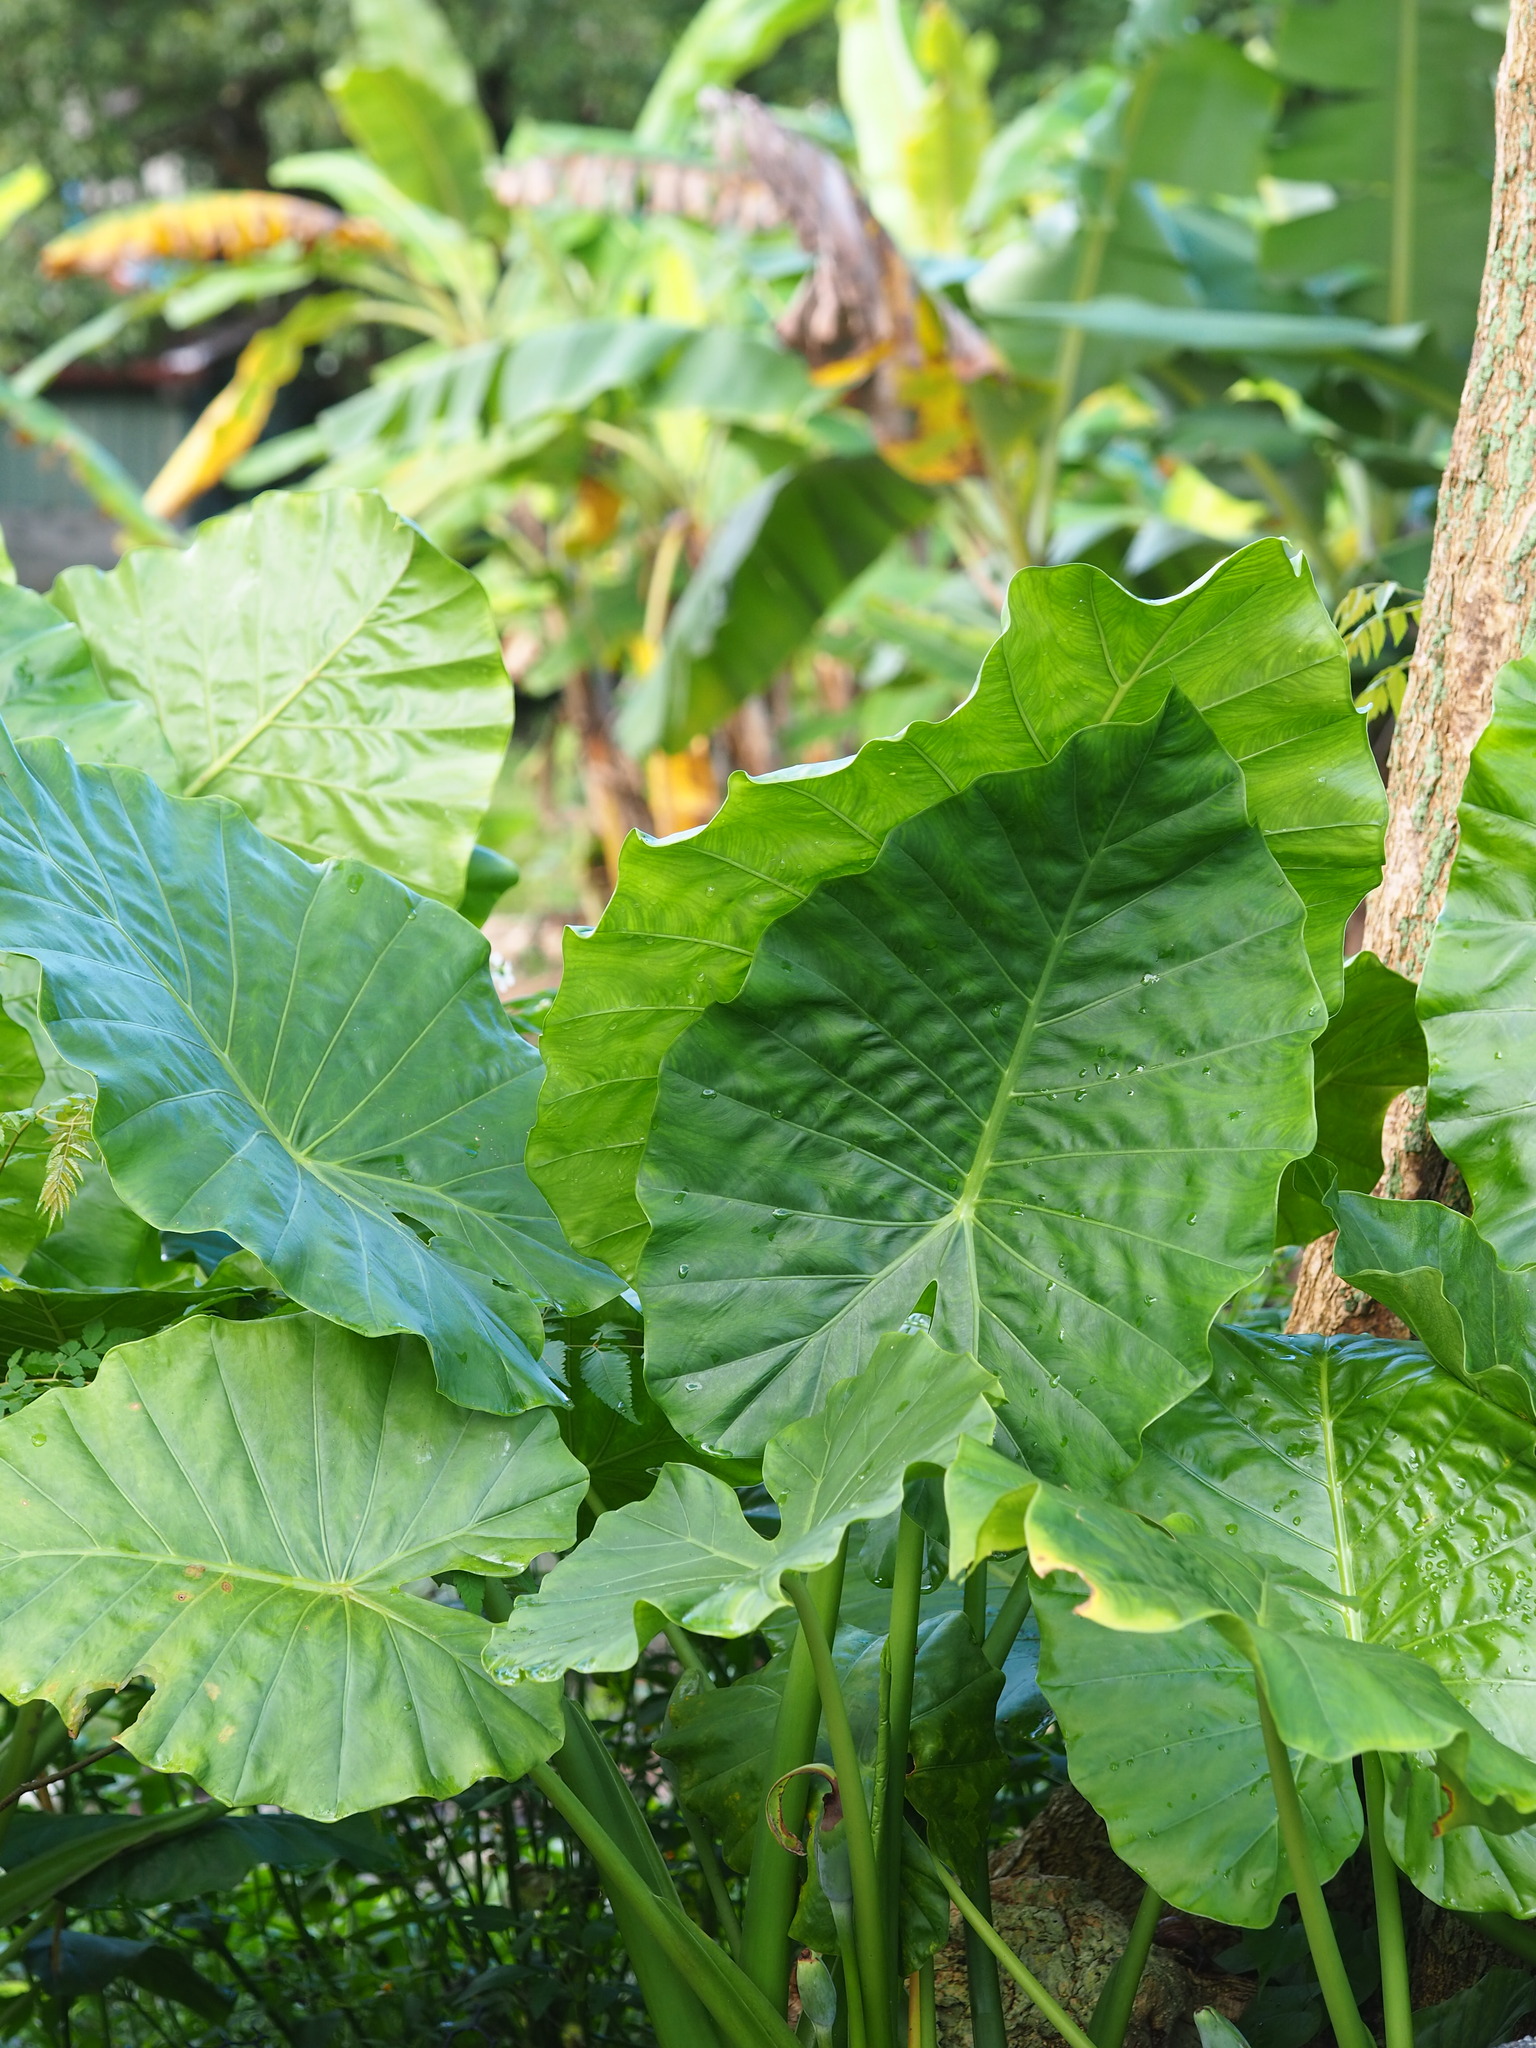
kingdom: Plantae
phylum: Tracheophyta
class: Liliopsida
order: Alismatales
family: Araceae
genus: Alocasia
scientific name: Alocasia odora
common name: Asian taro
